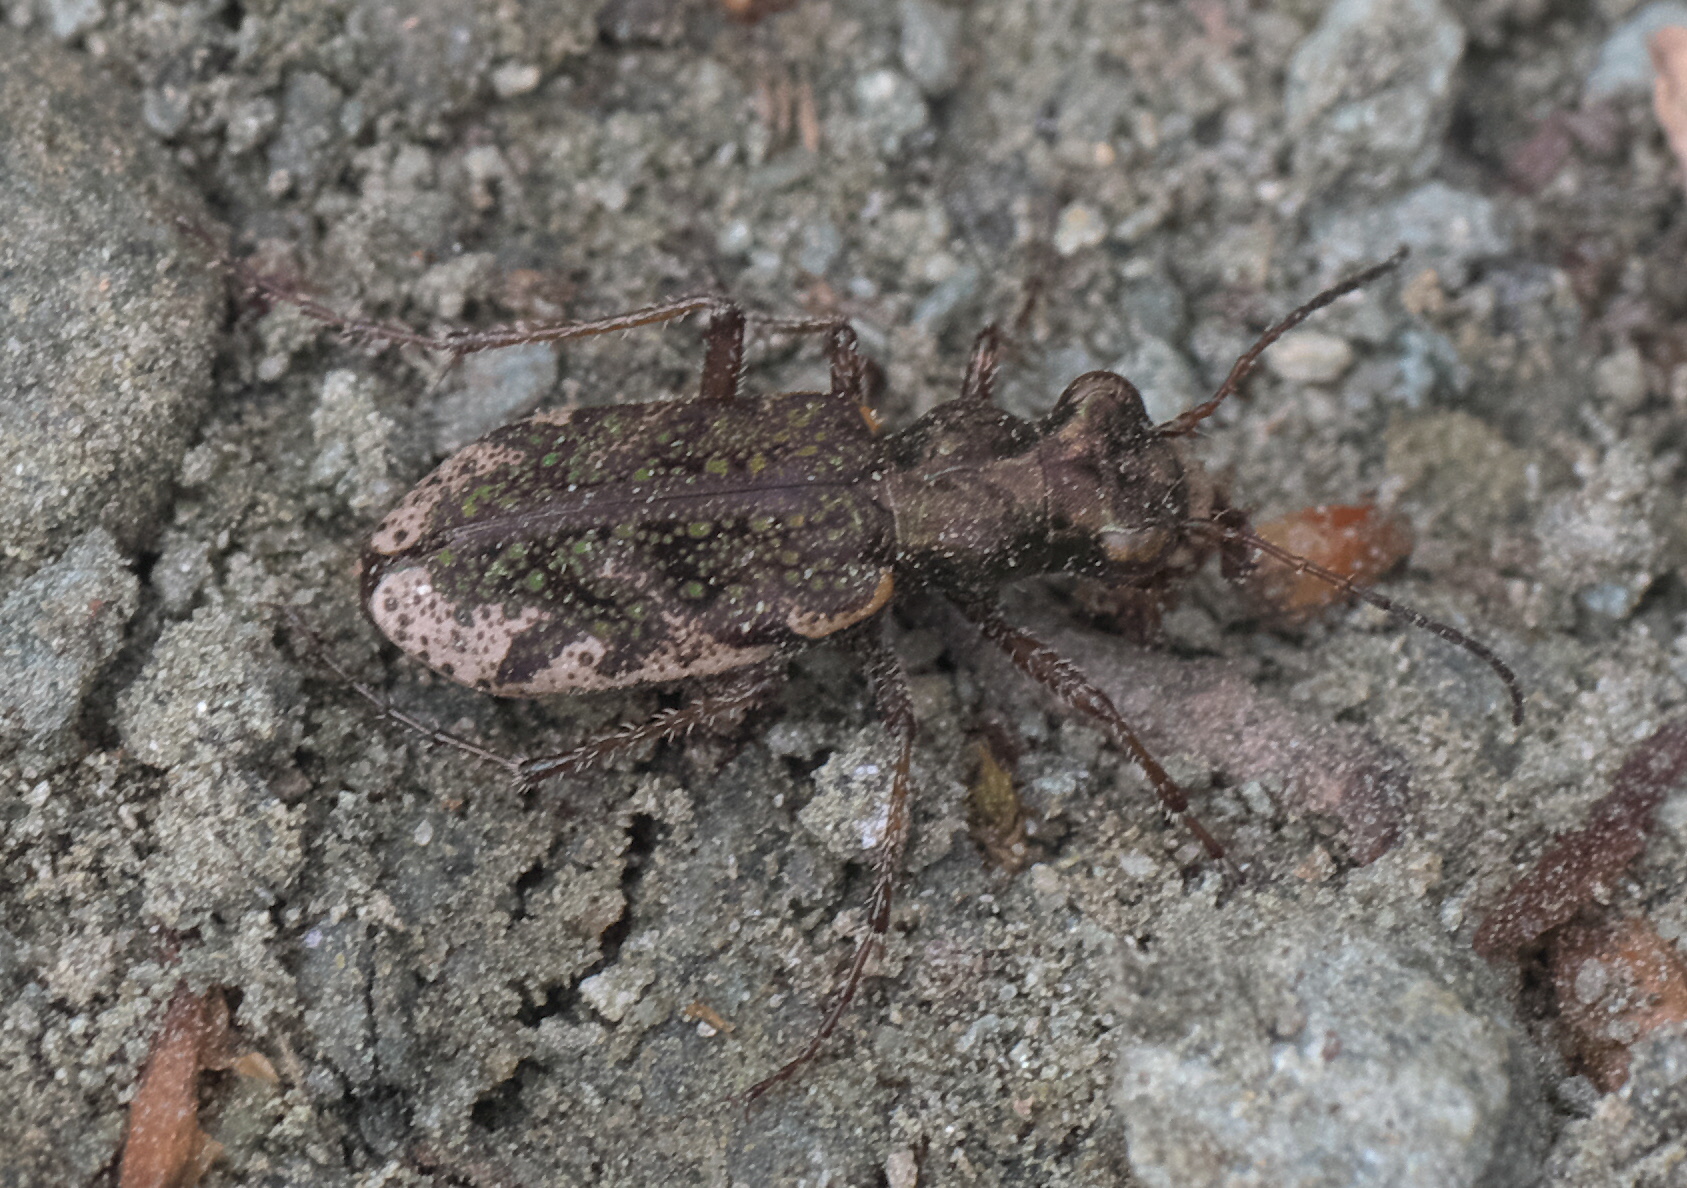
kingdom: Animalia
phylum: Arthropoda
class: Insecta
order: Coleoptera
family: Carabidae
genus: Neocicindela
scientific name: Neocicindela garnerae
